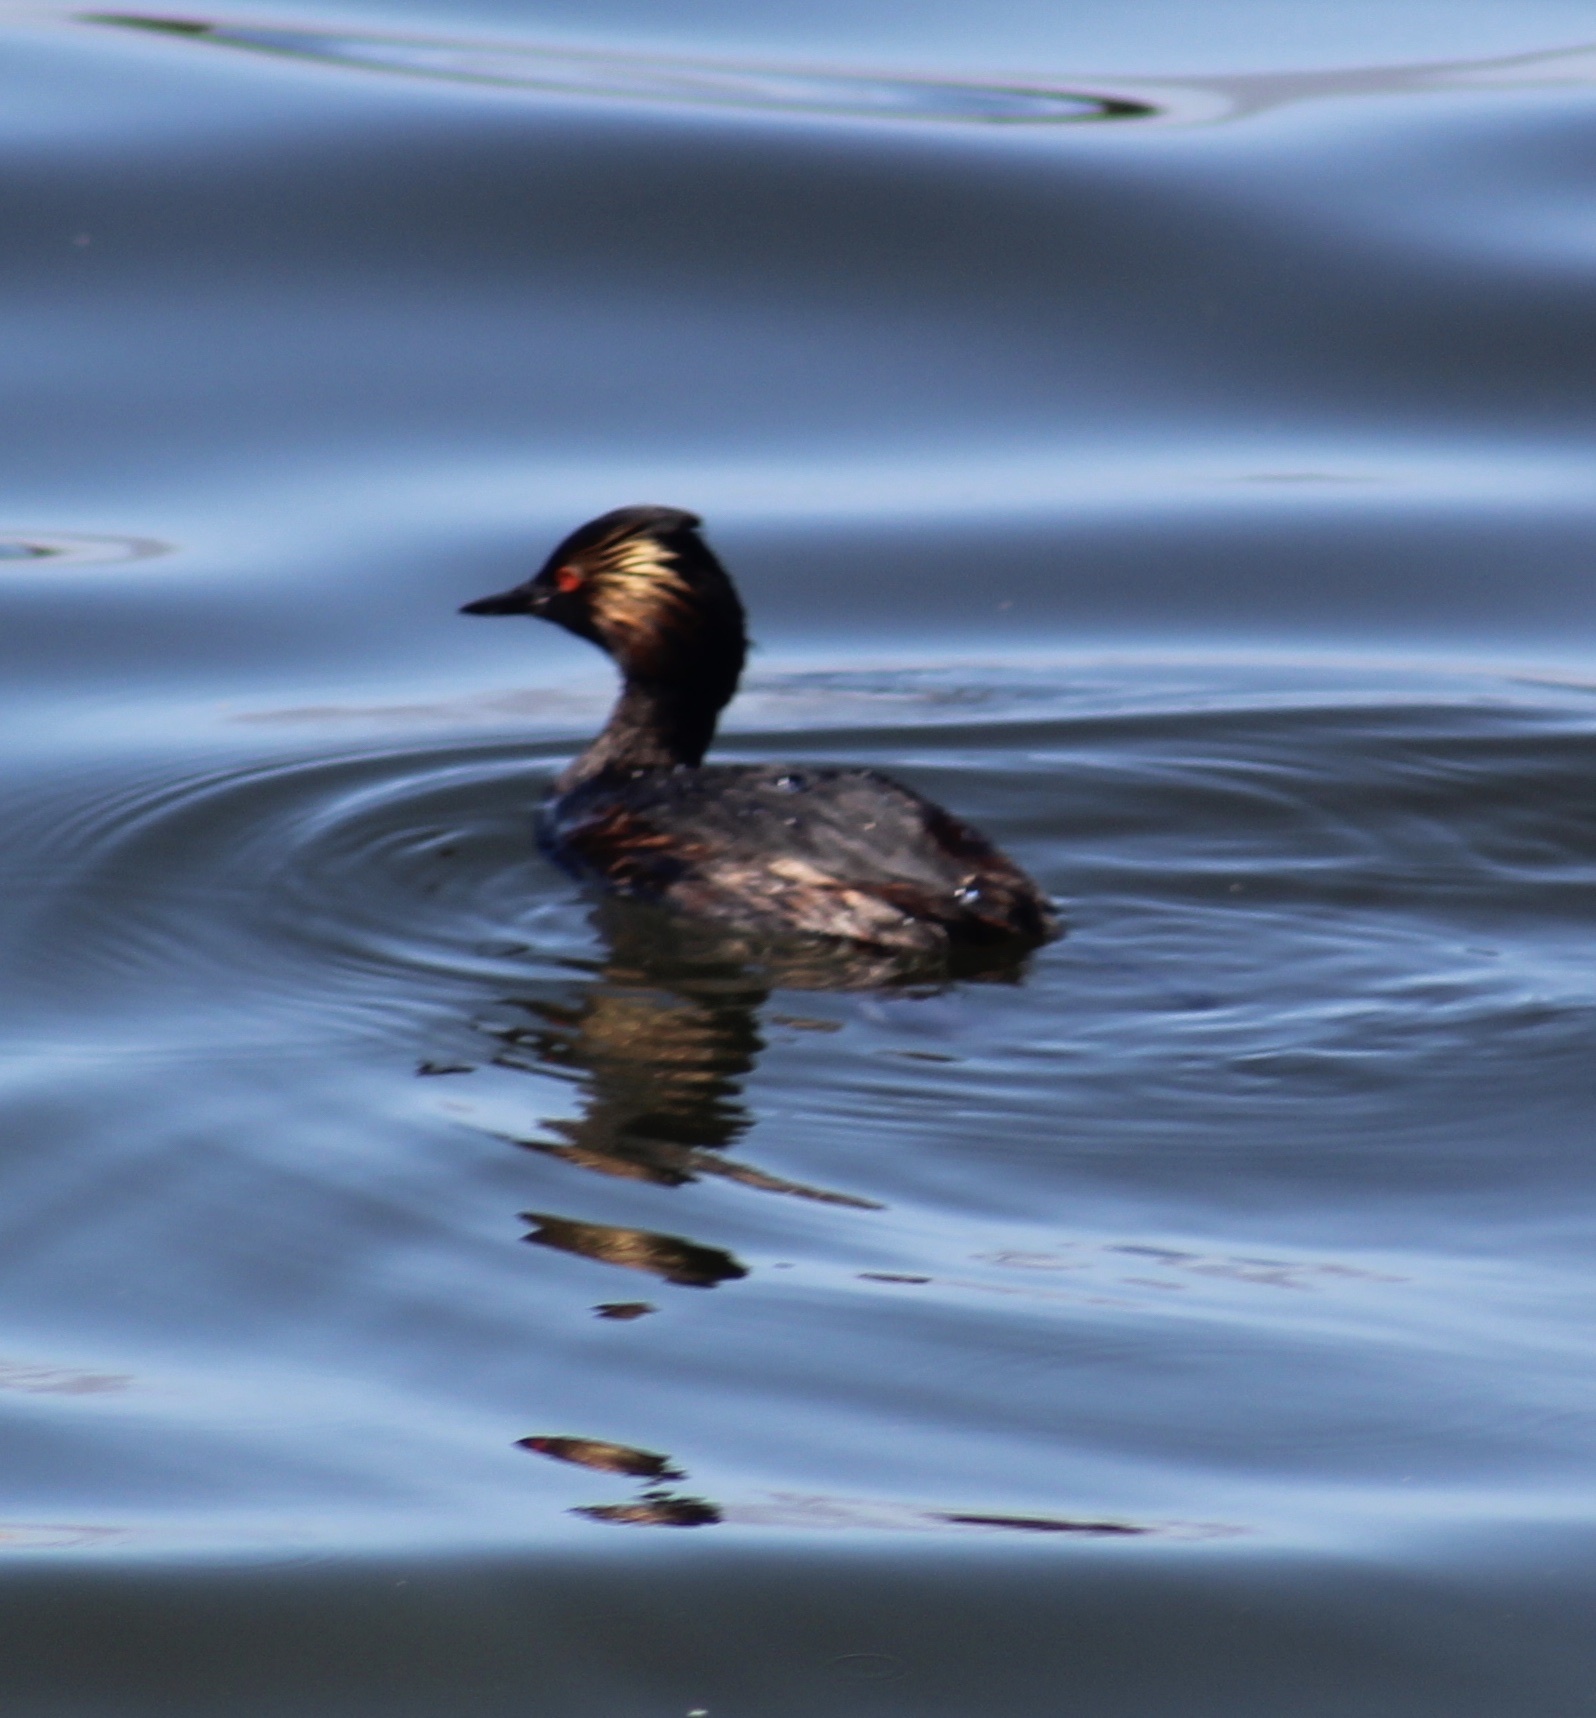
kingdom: Animalia
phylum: Chordata
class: Aves
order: Podicipediformes
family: Podicipedidae
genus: Podiceps
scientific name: Podiceps nigricollis
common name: Black-necked grebe
